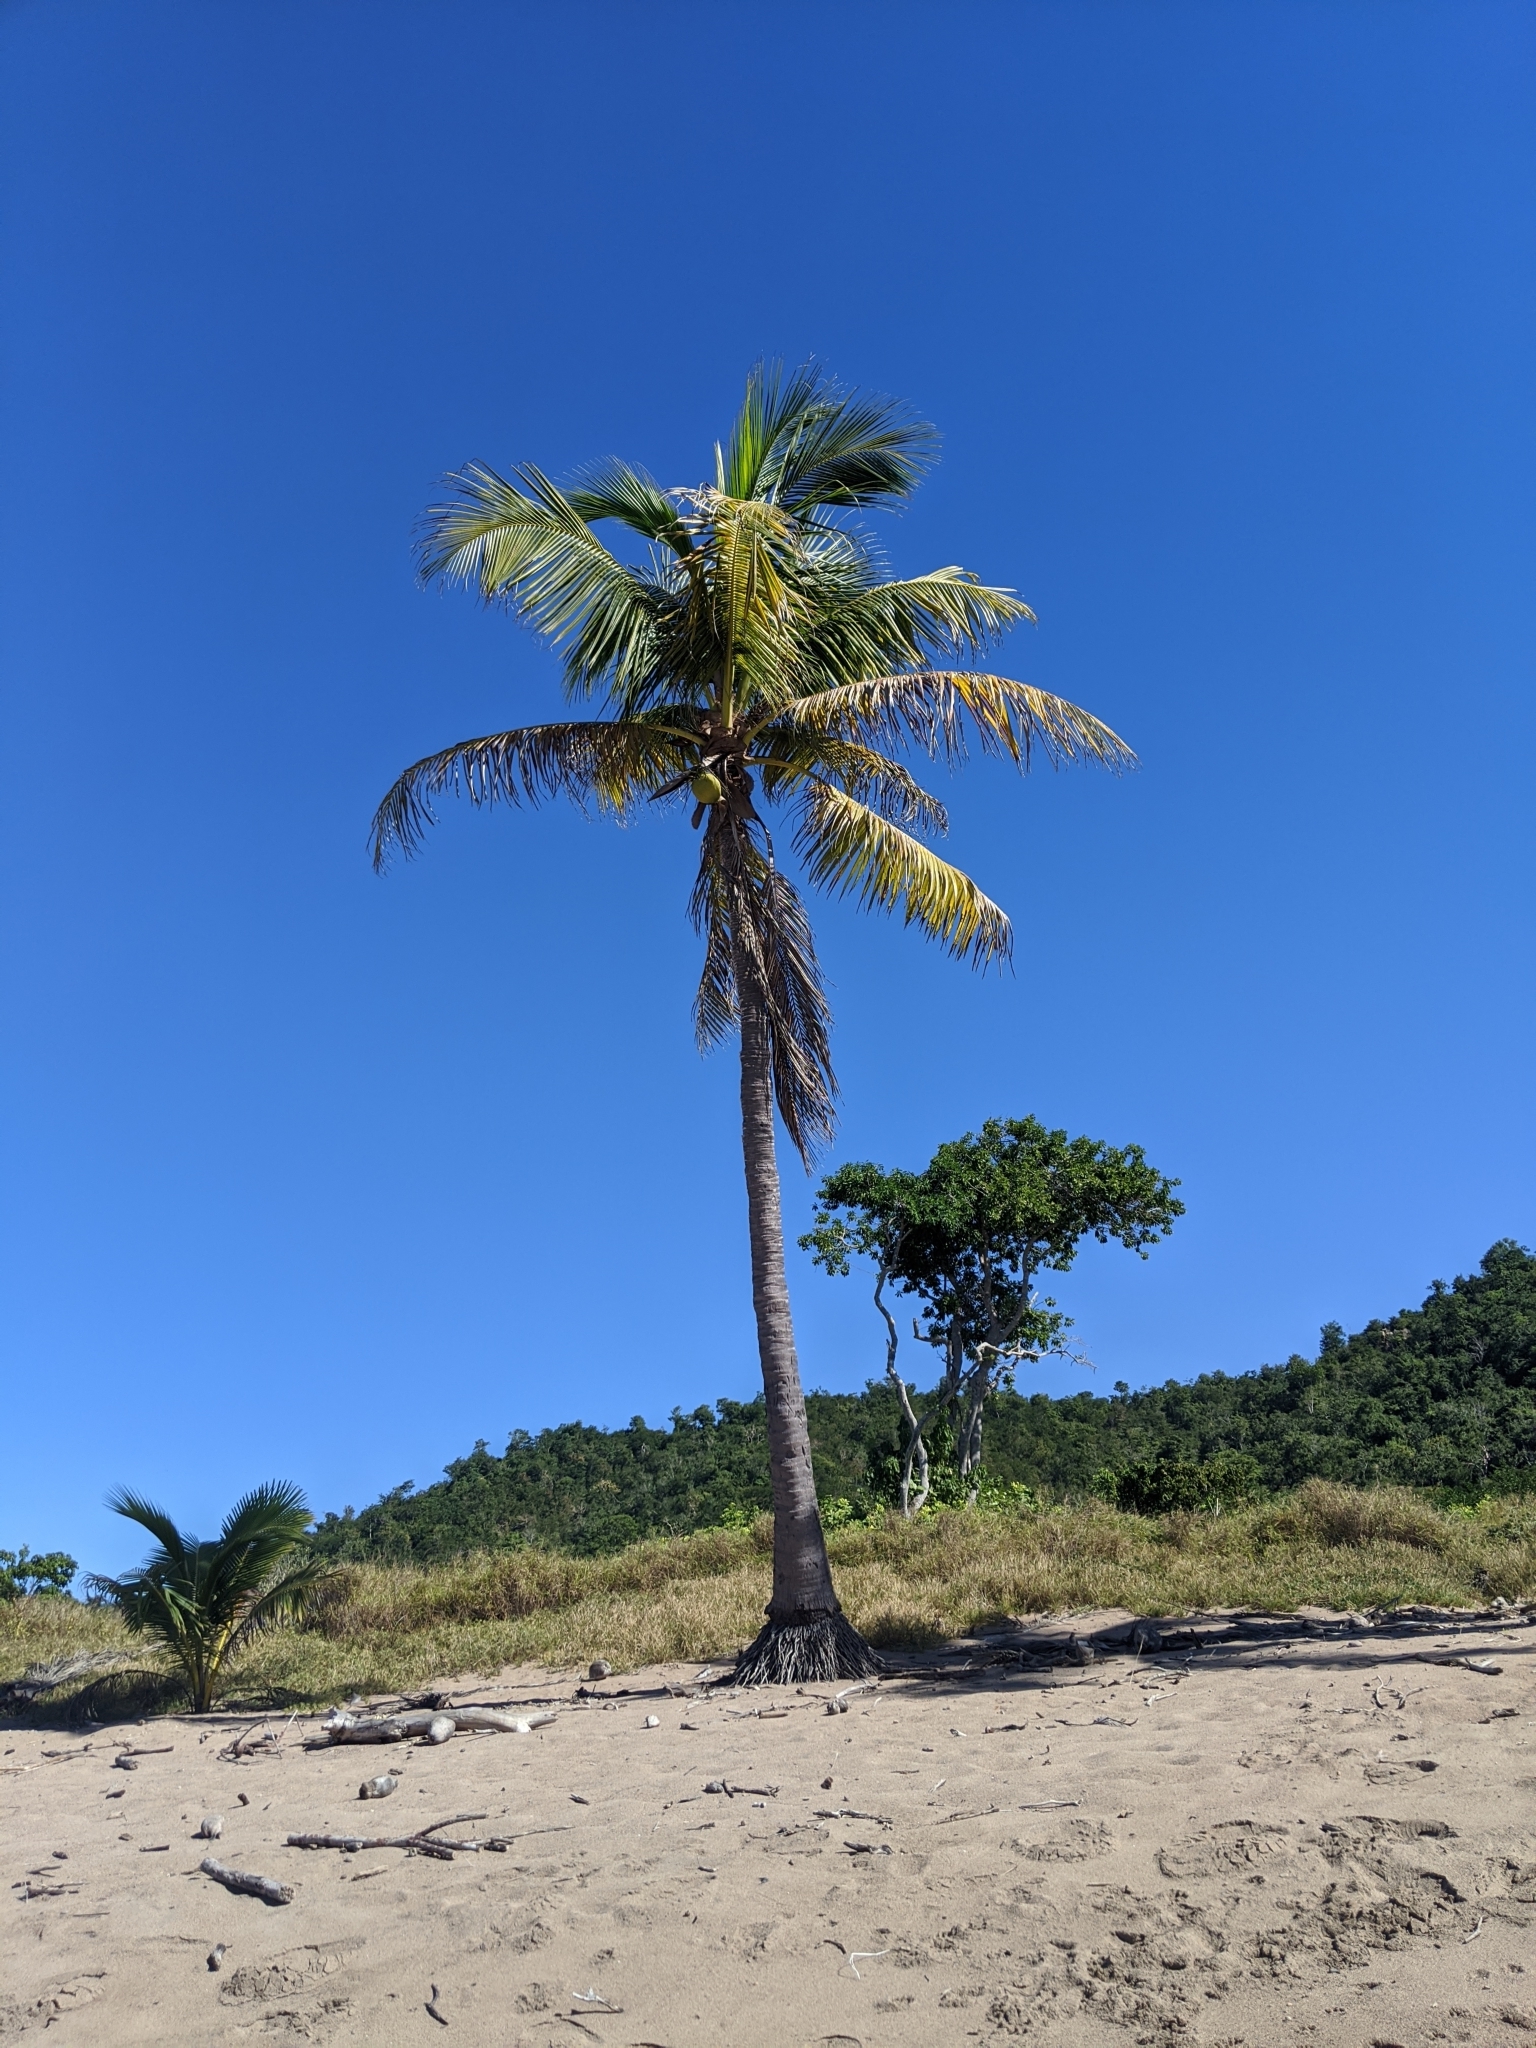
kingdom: Plantae
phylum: Tracheophyta
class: Liliopsida
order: Arecales
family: Arecaceae
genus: Cocos
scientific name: Cocos nucifera
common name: Coconut palm
